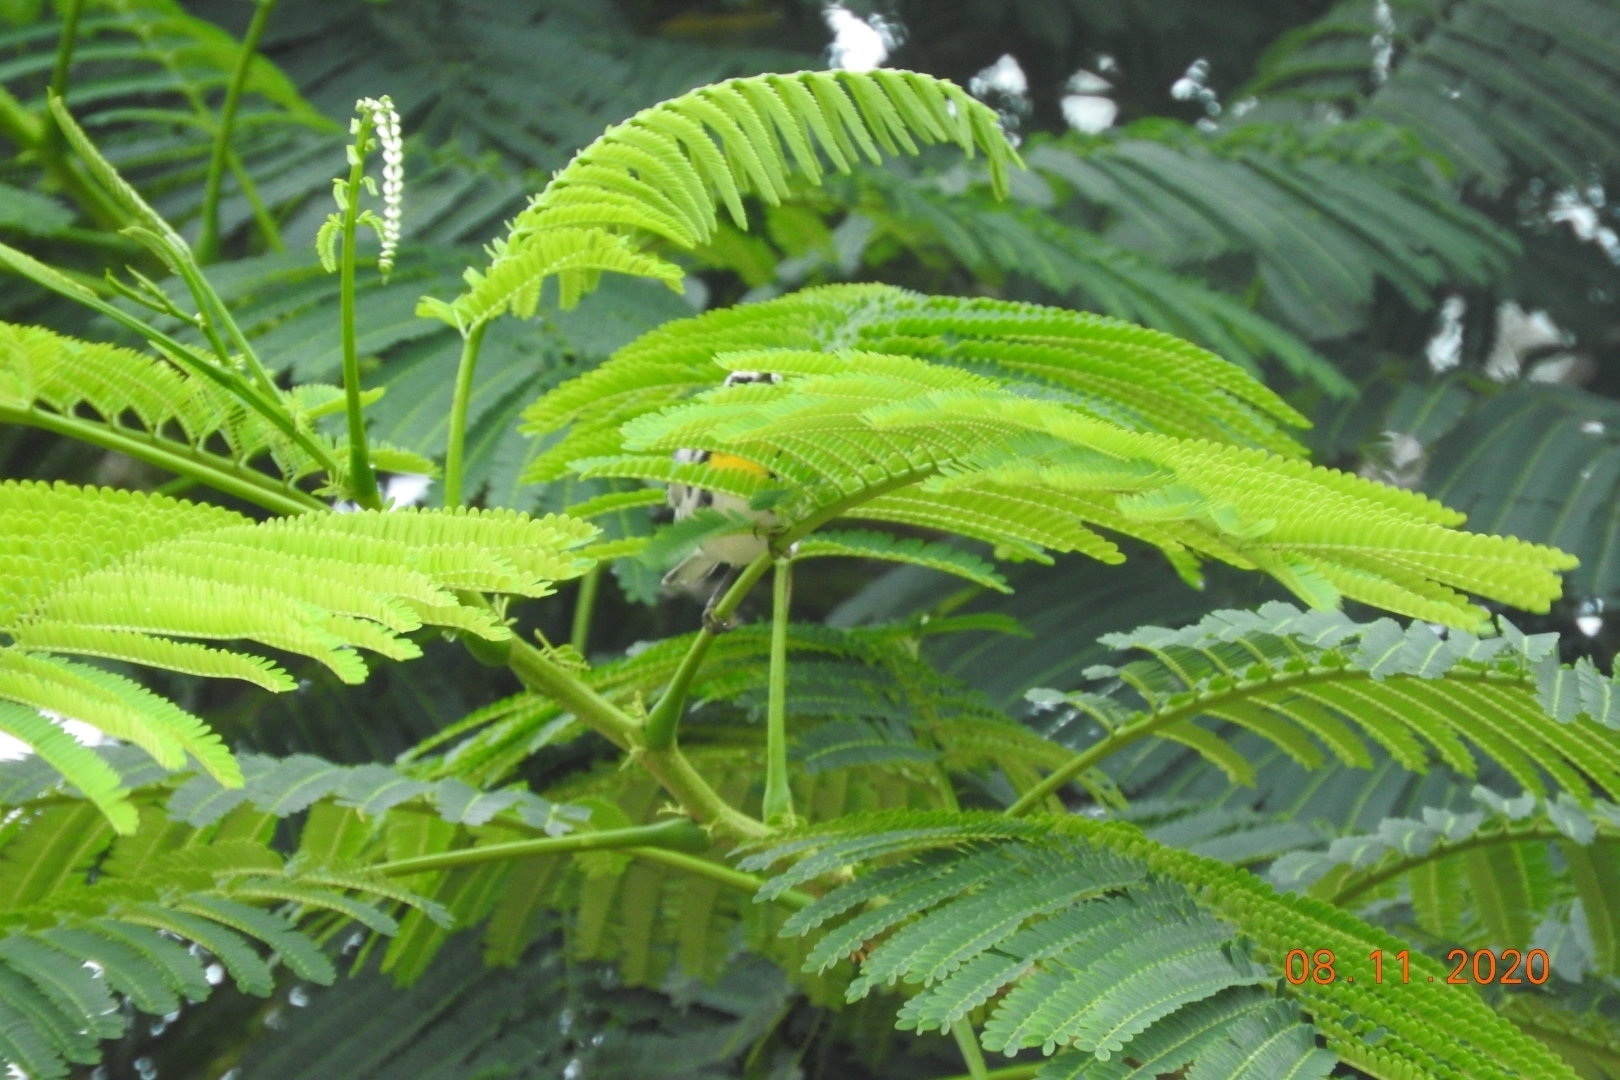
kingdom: Animalia
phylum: Chordata
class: Aves
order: Passeriformes
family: Parulidae
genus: Setophaga
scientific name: Setophaga dominica
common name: Yellow-throated warbler
